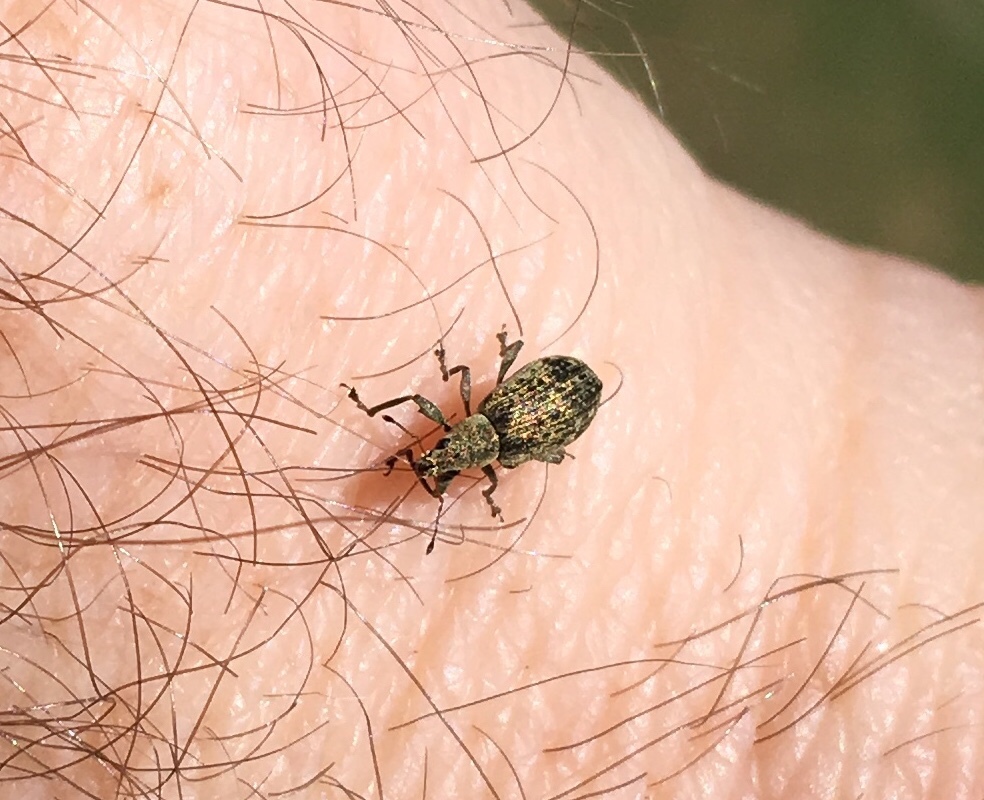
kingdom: Animalia
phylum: Arthropoda
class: Insecta
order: Coleoptera
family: Curculionidae
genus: Polydrusus
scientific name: Polydrusus cervinus
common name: Weevil
